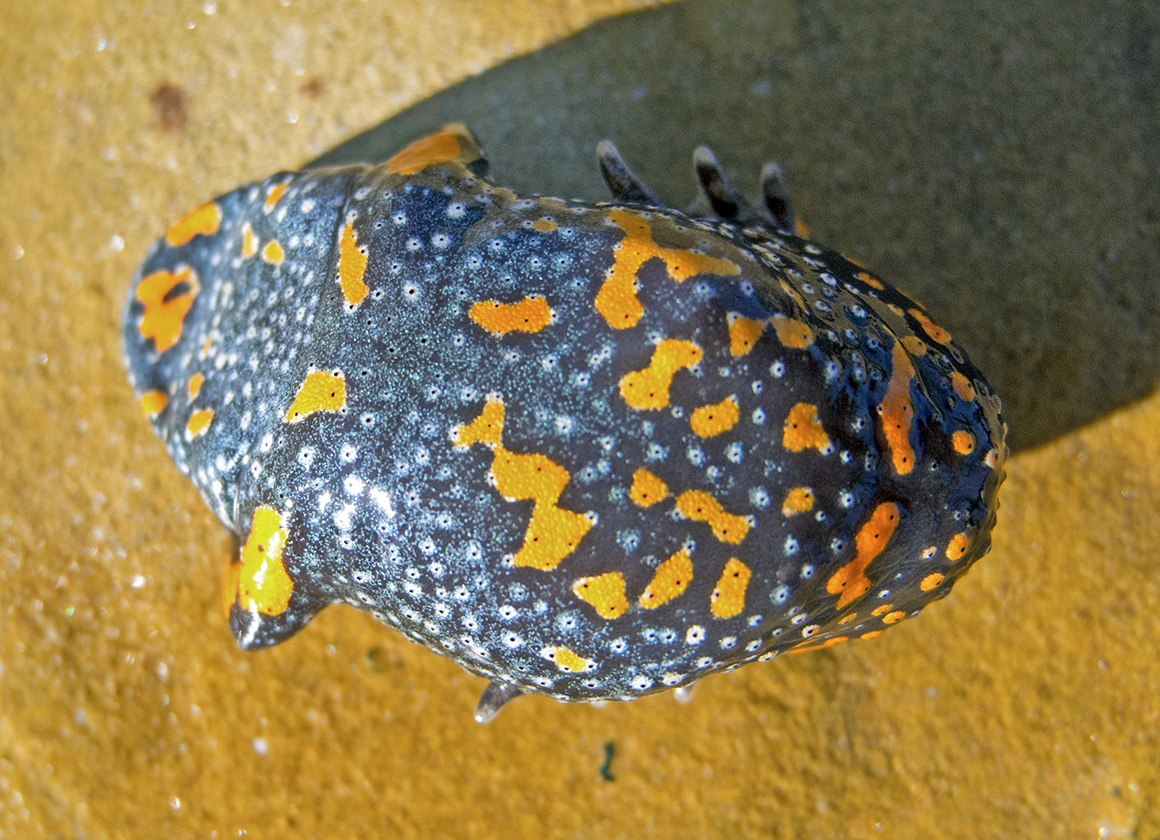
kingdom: Animalia
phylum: Chordata
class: Amphibia
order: Anura
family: Bombinatoridae
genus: Bombina
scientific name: Bombina bombina
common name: Fire-bellied toad
